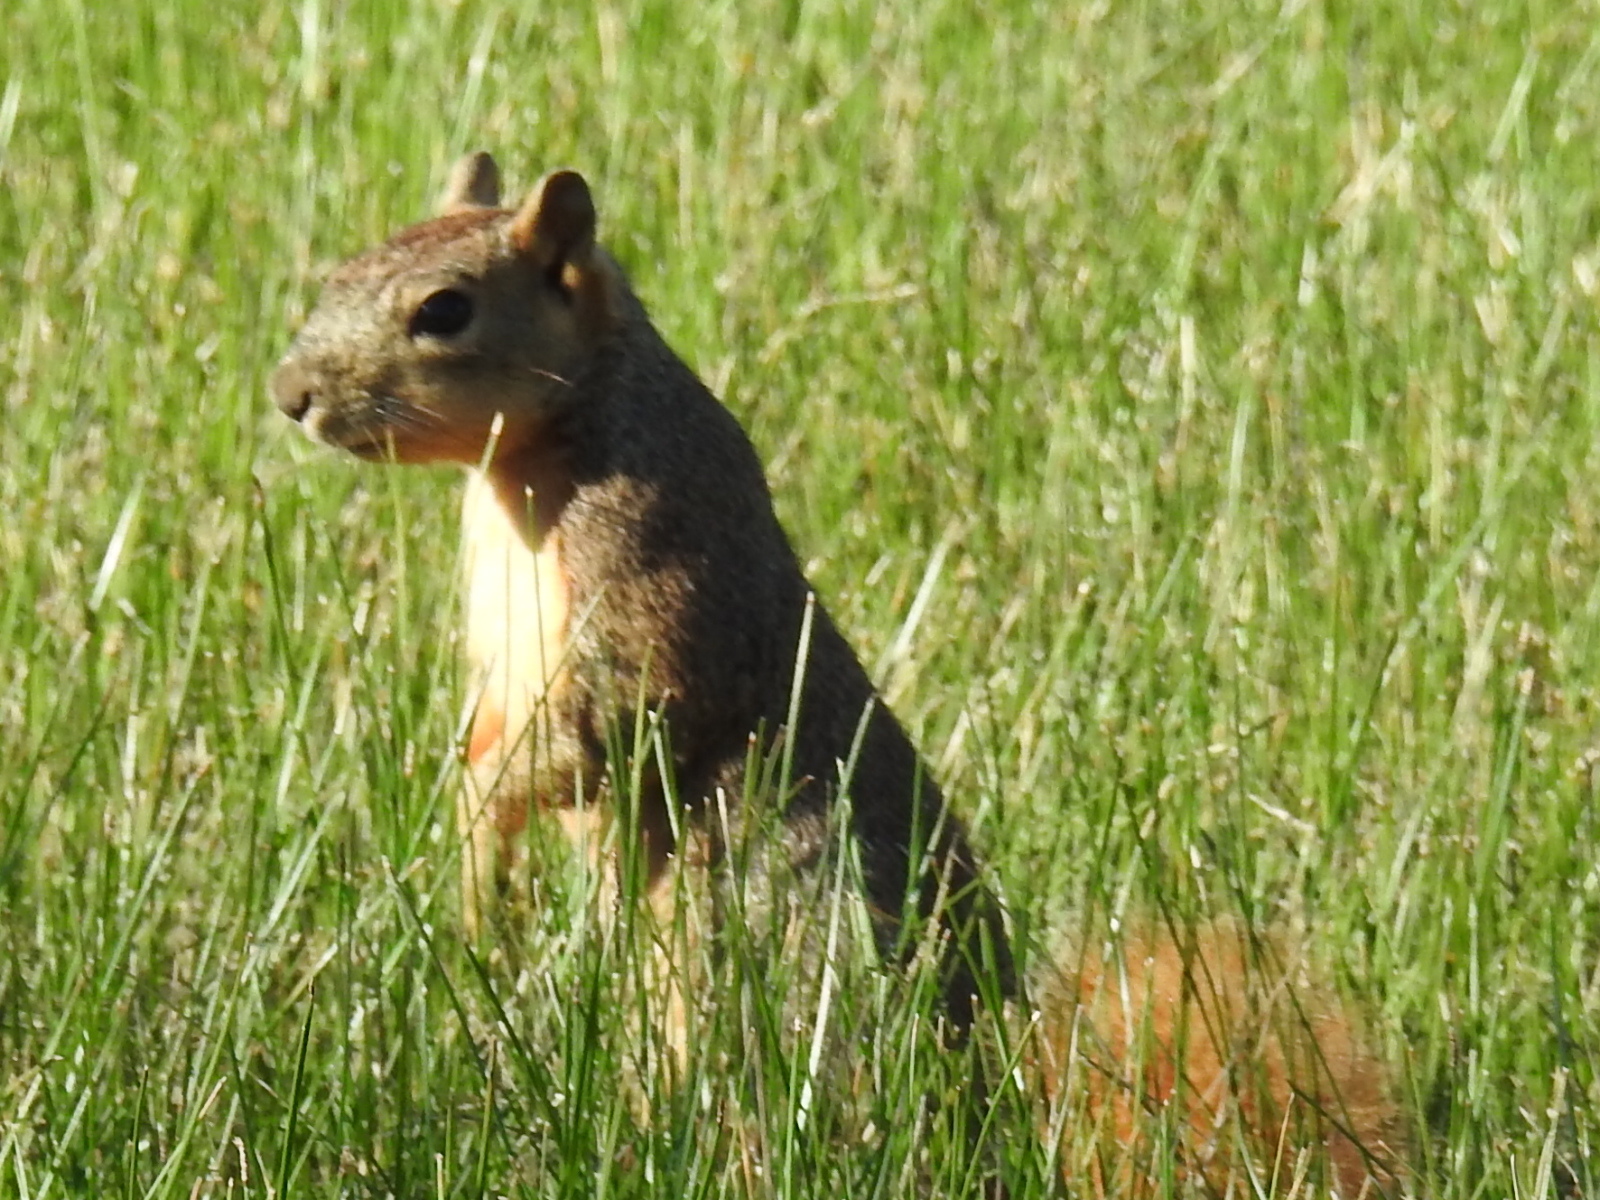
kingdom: Animalia
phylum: Chordata
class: Mammalia
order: Rodentia
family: Sciuridae
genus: Sciurus
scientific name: Sciurus niger
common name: Fox squirrel
